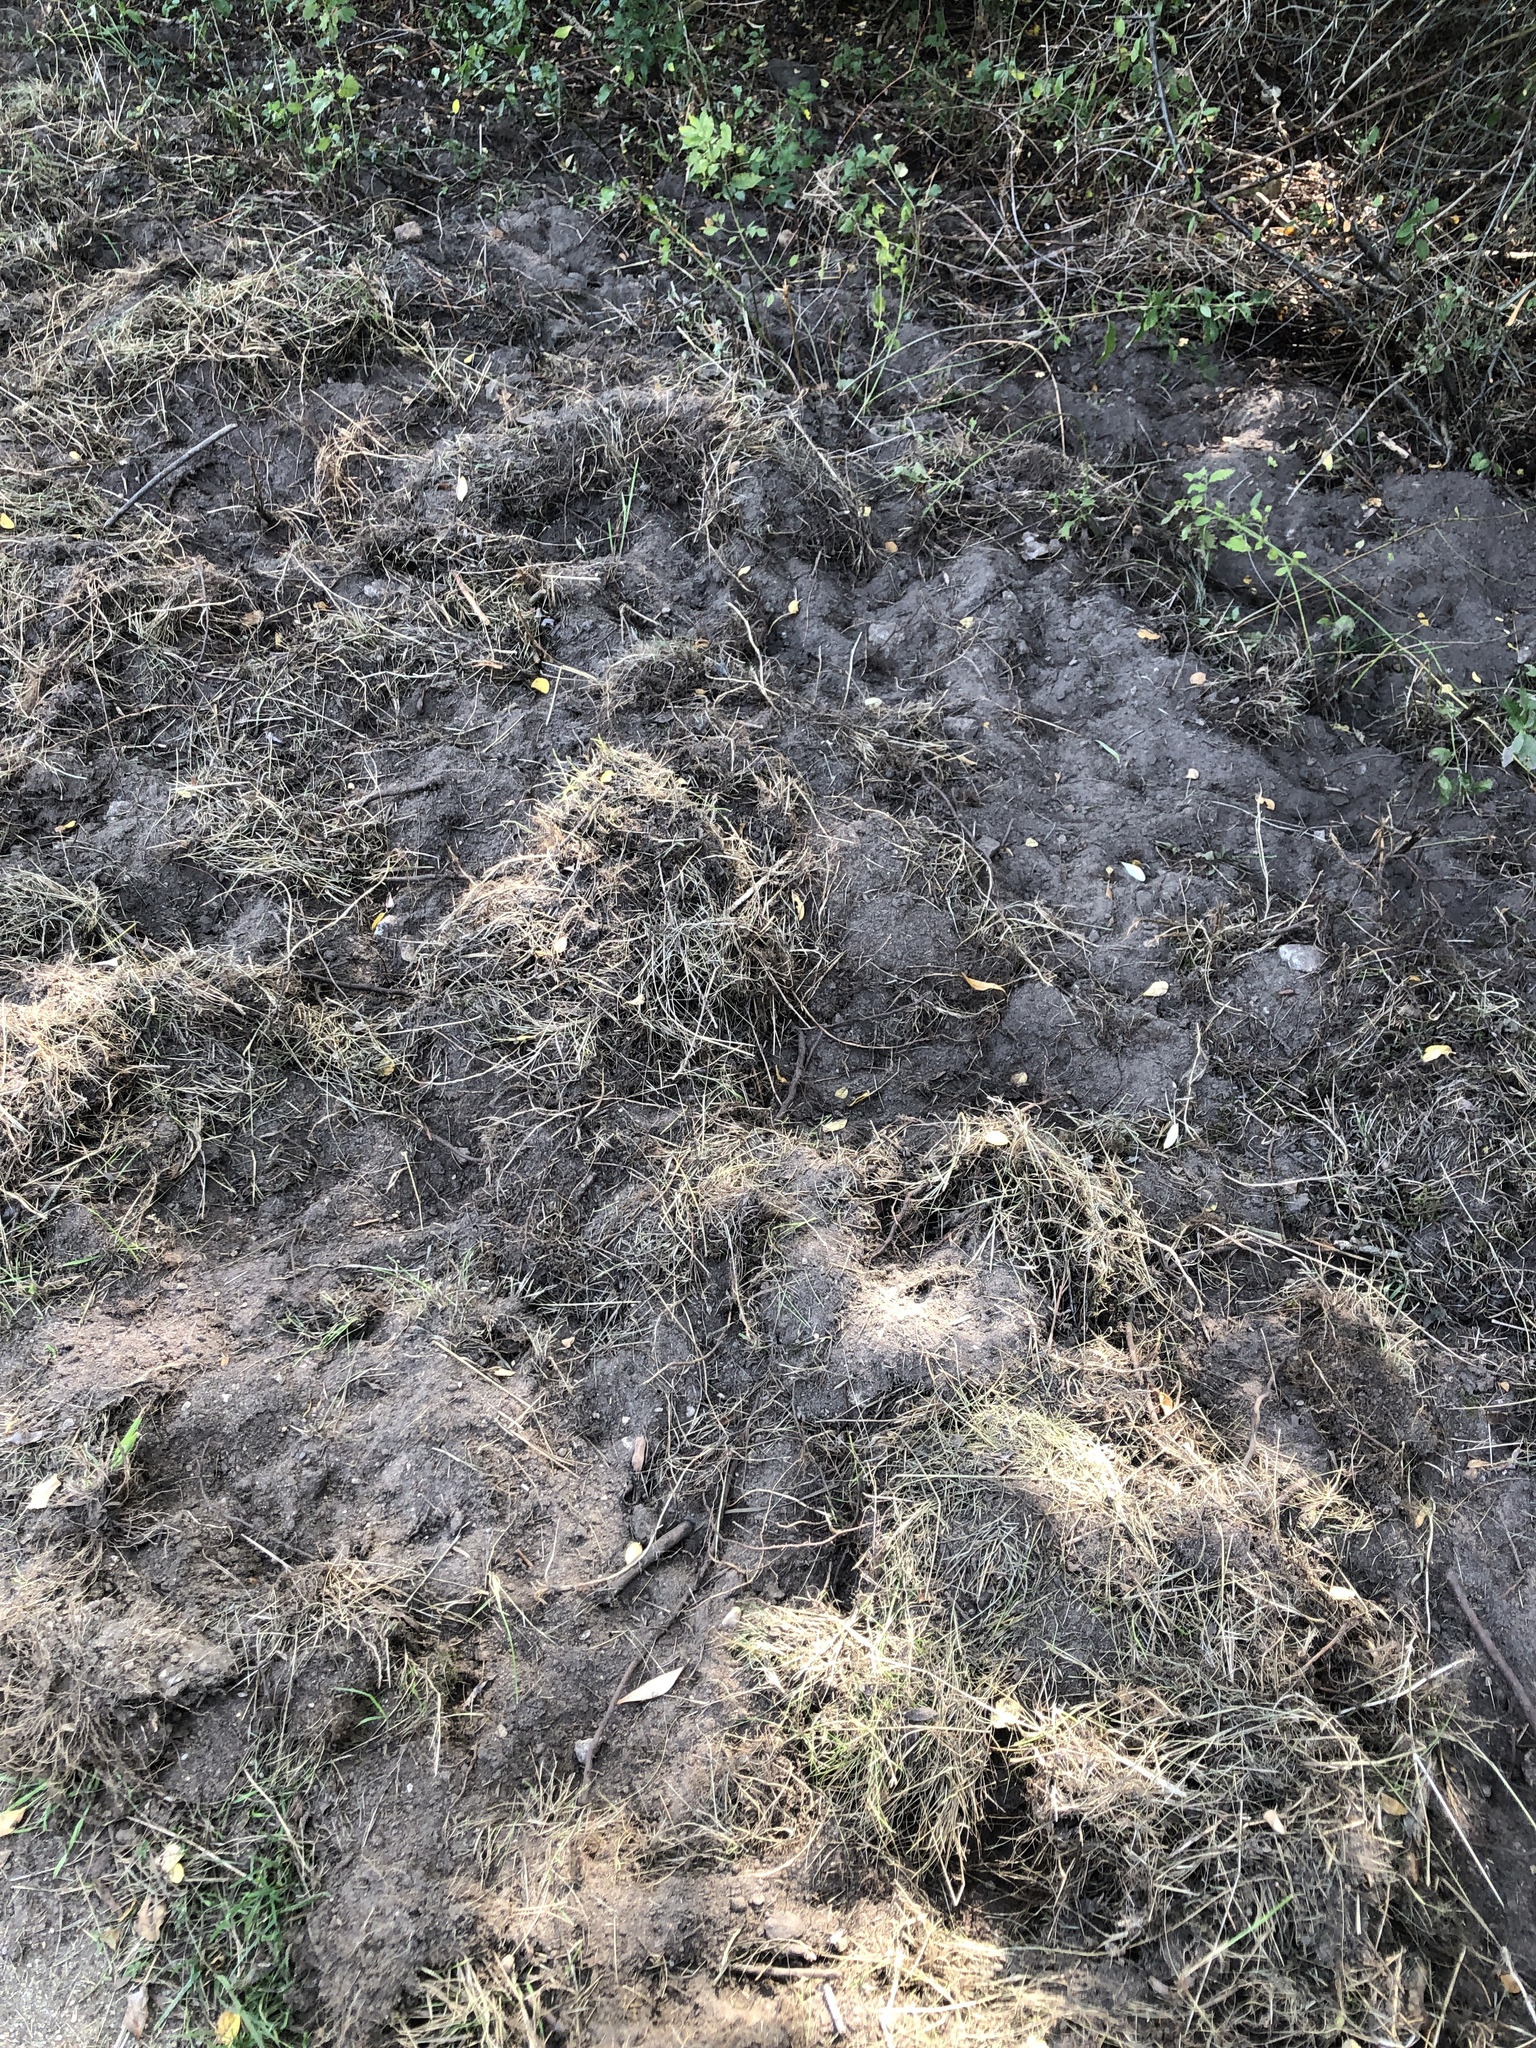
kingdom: Animalia
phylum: Chordata
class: Mammalia
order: Artiodactyla
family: Suidae
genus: Sus
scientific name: Sus scrofa
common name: Wild boar
